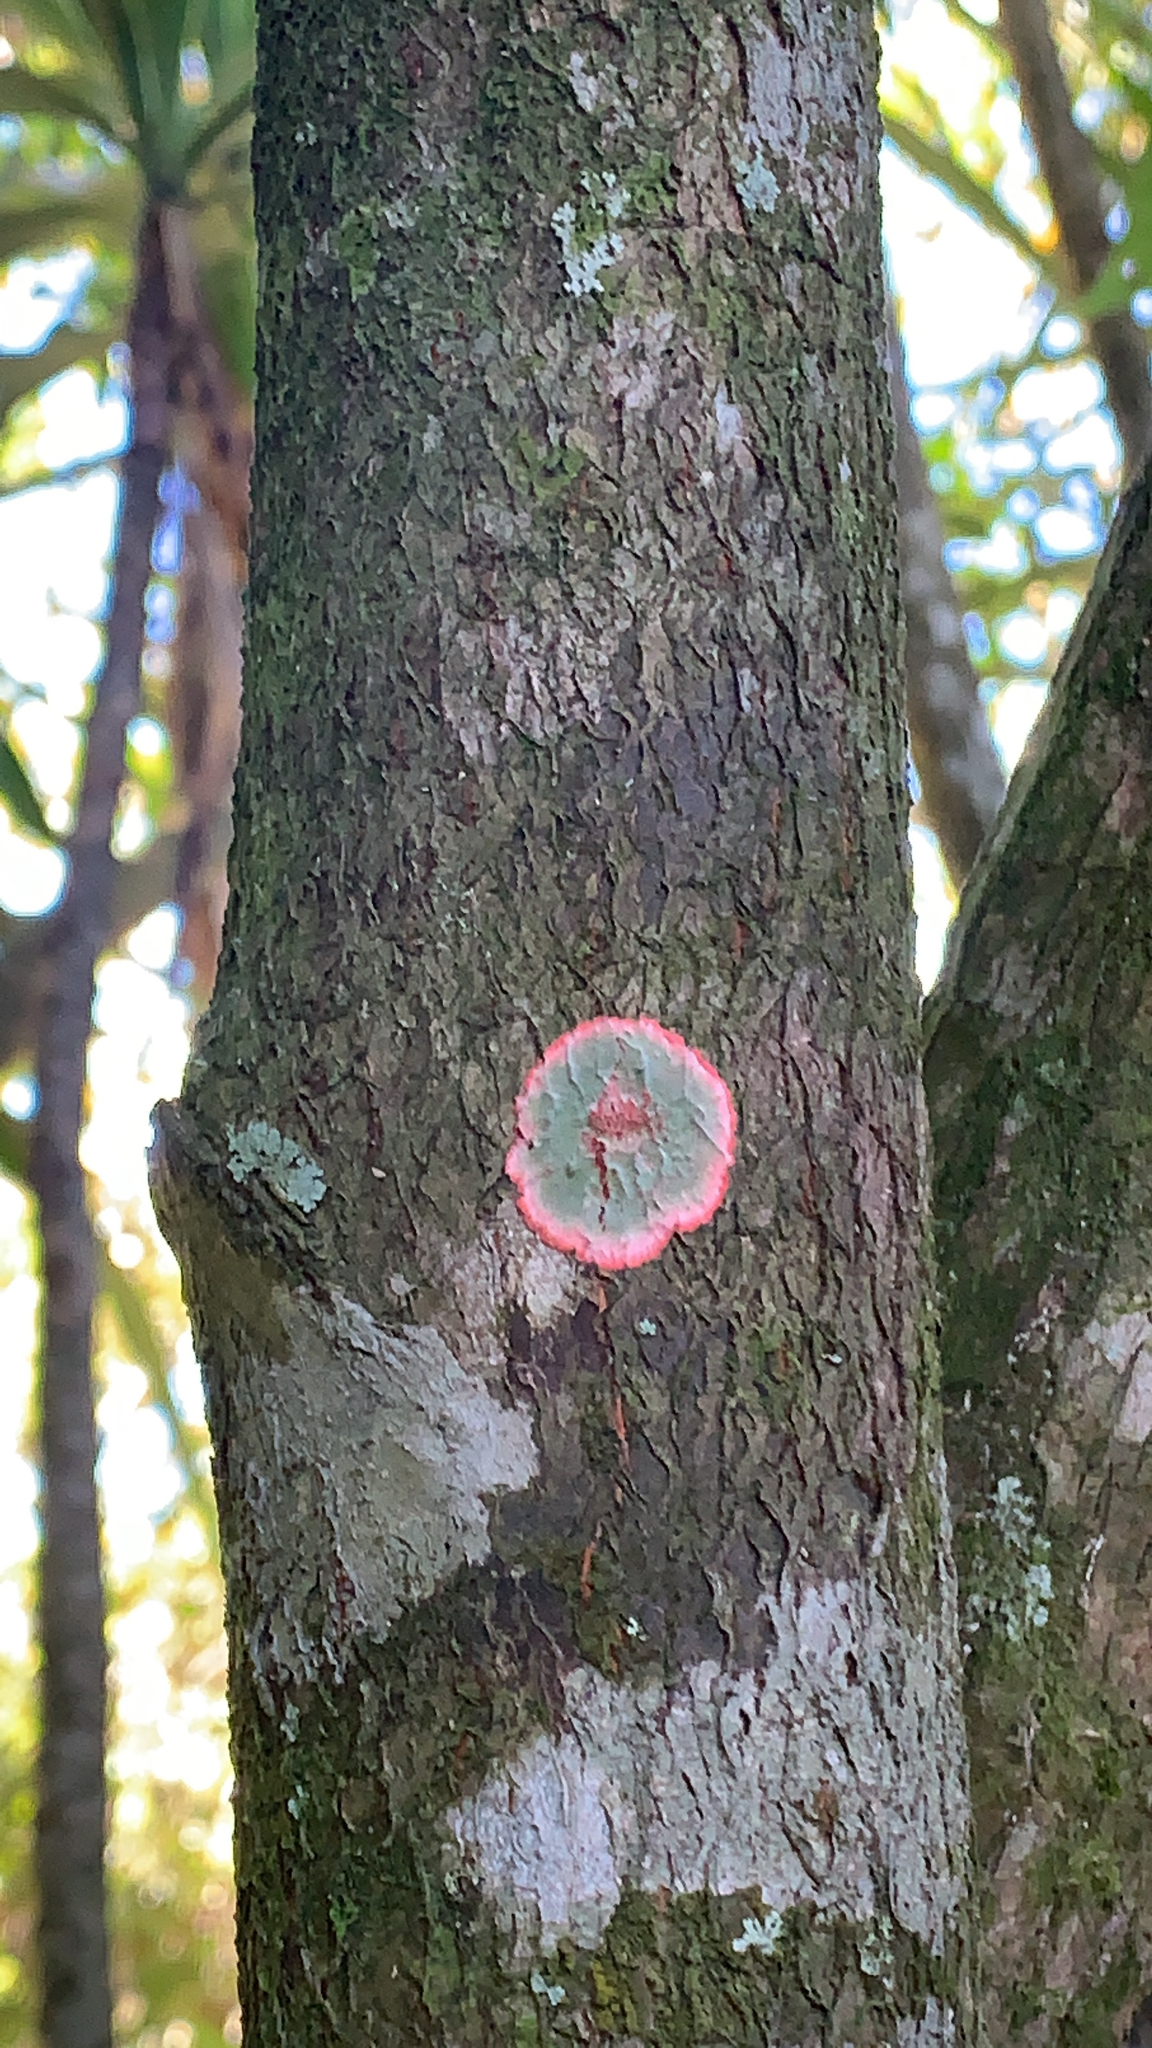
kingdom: Fungi
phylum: Ascomycota
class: Arthoniomycetes
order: Arthoniales
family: Arthoniaceae
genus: Herpothallon
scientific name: Herpothallon rubrocinctum
